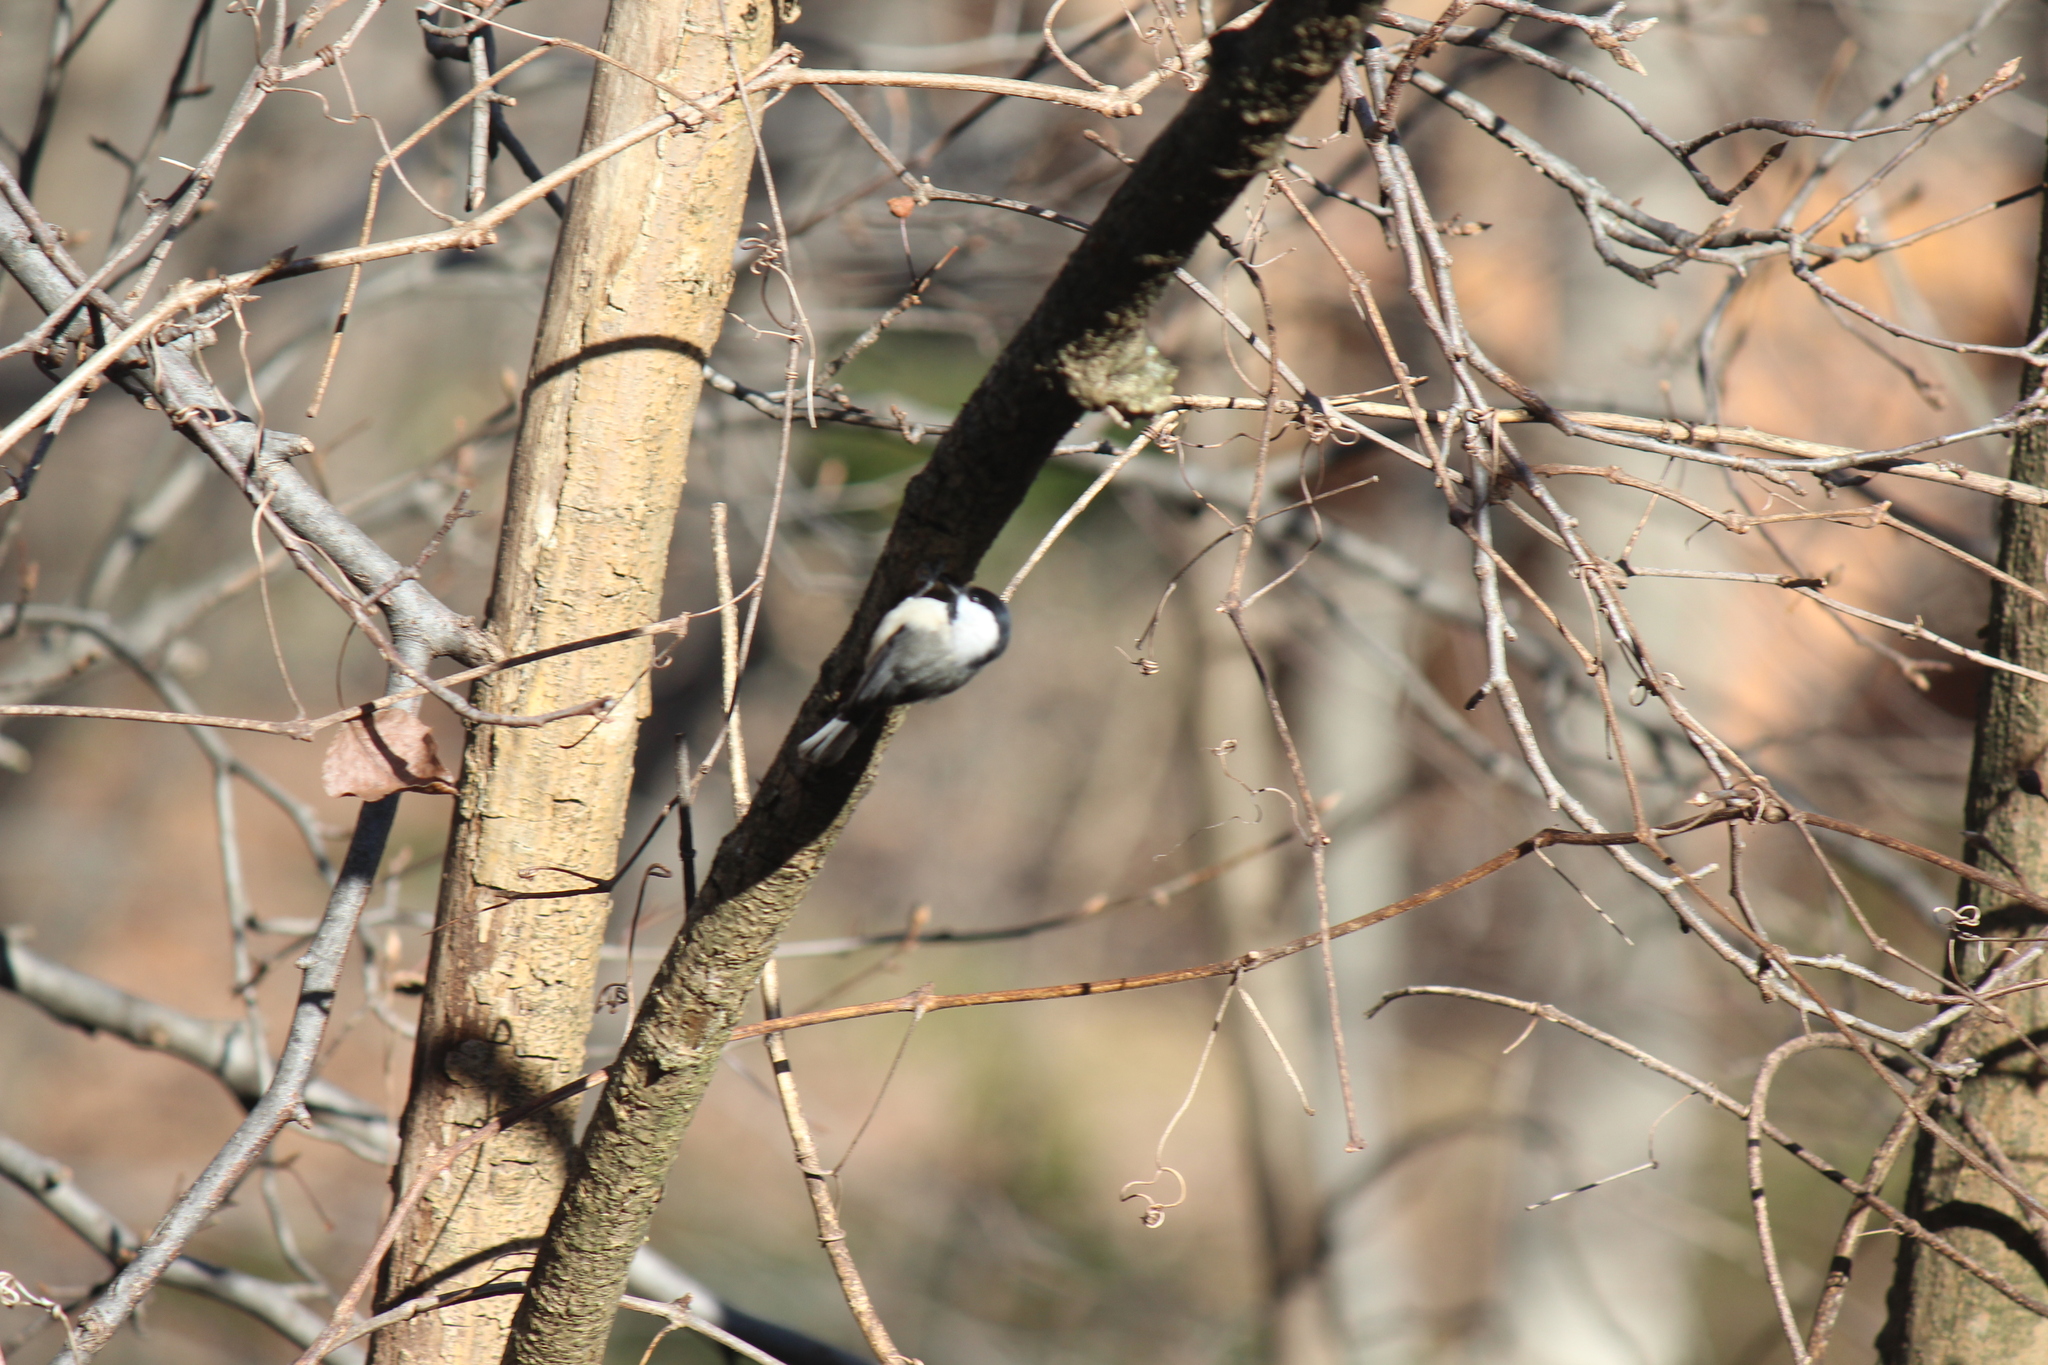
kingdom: Animalia
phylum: Chordata
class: Aves
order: Passeriformes
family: Paridae
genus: Poecile
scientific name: Poecile carolinensis
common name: Carolina chickadee
